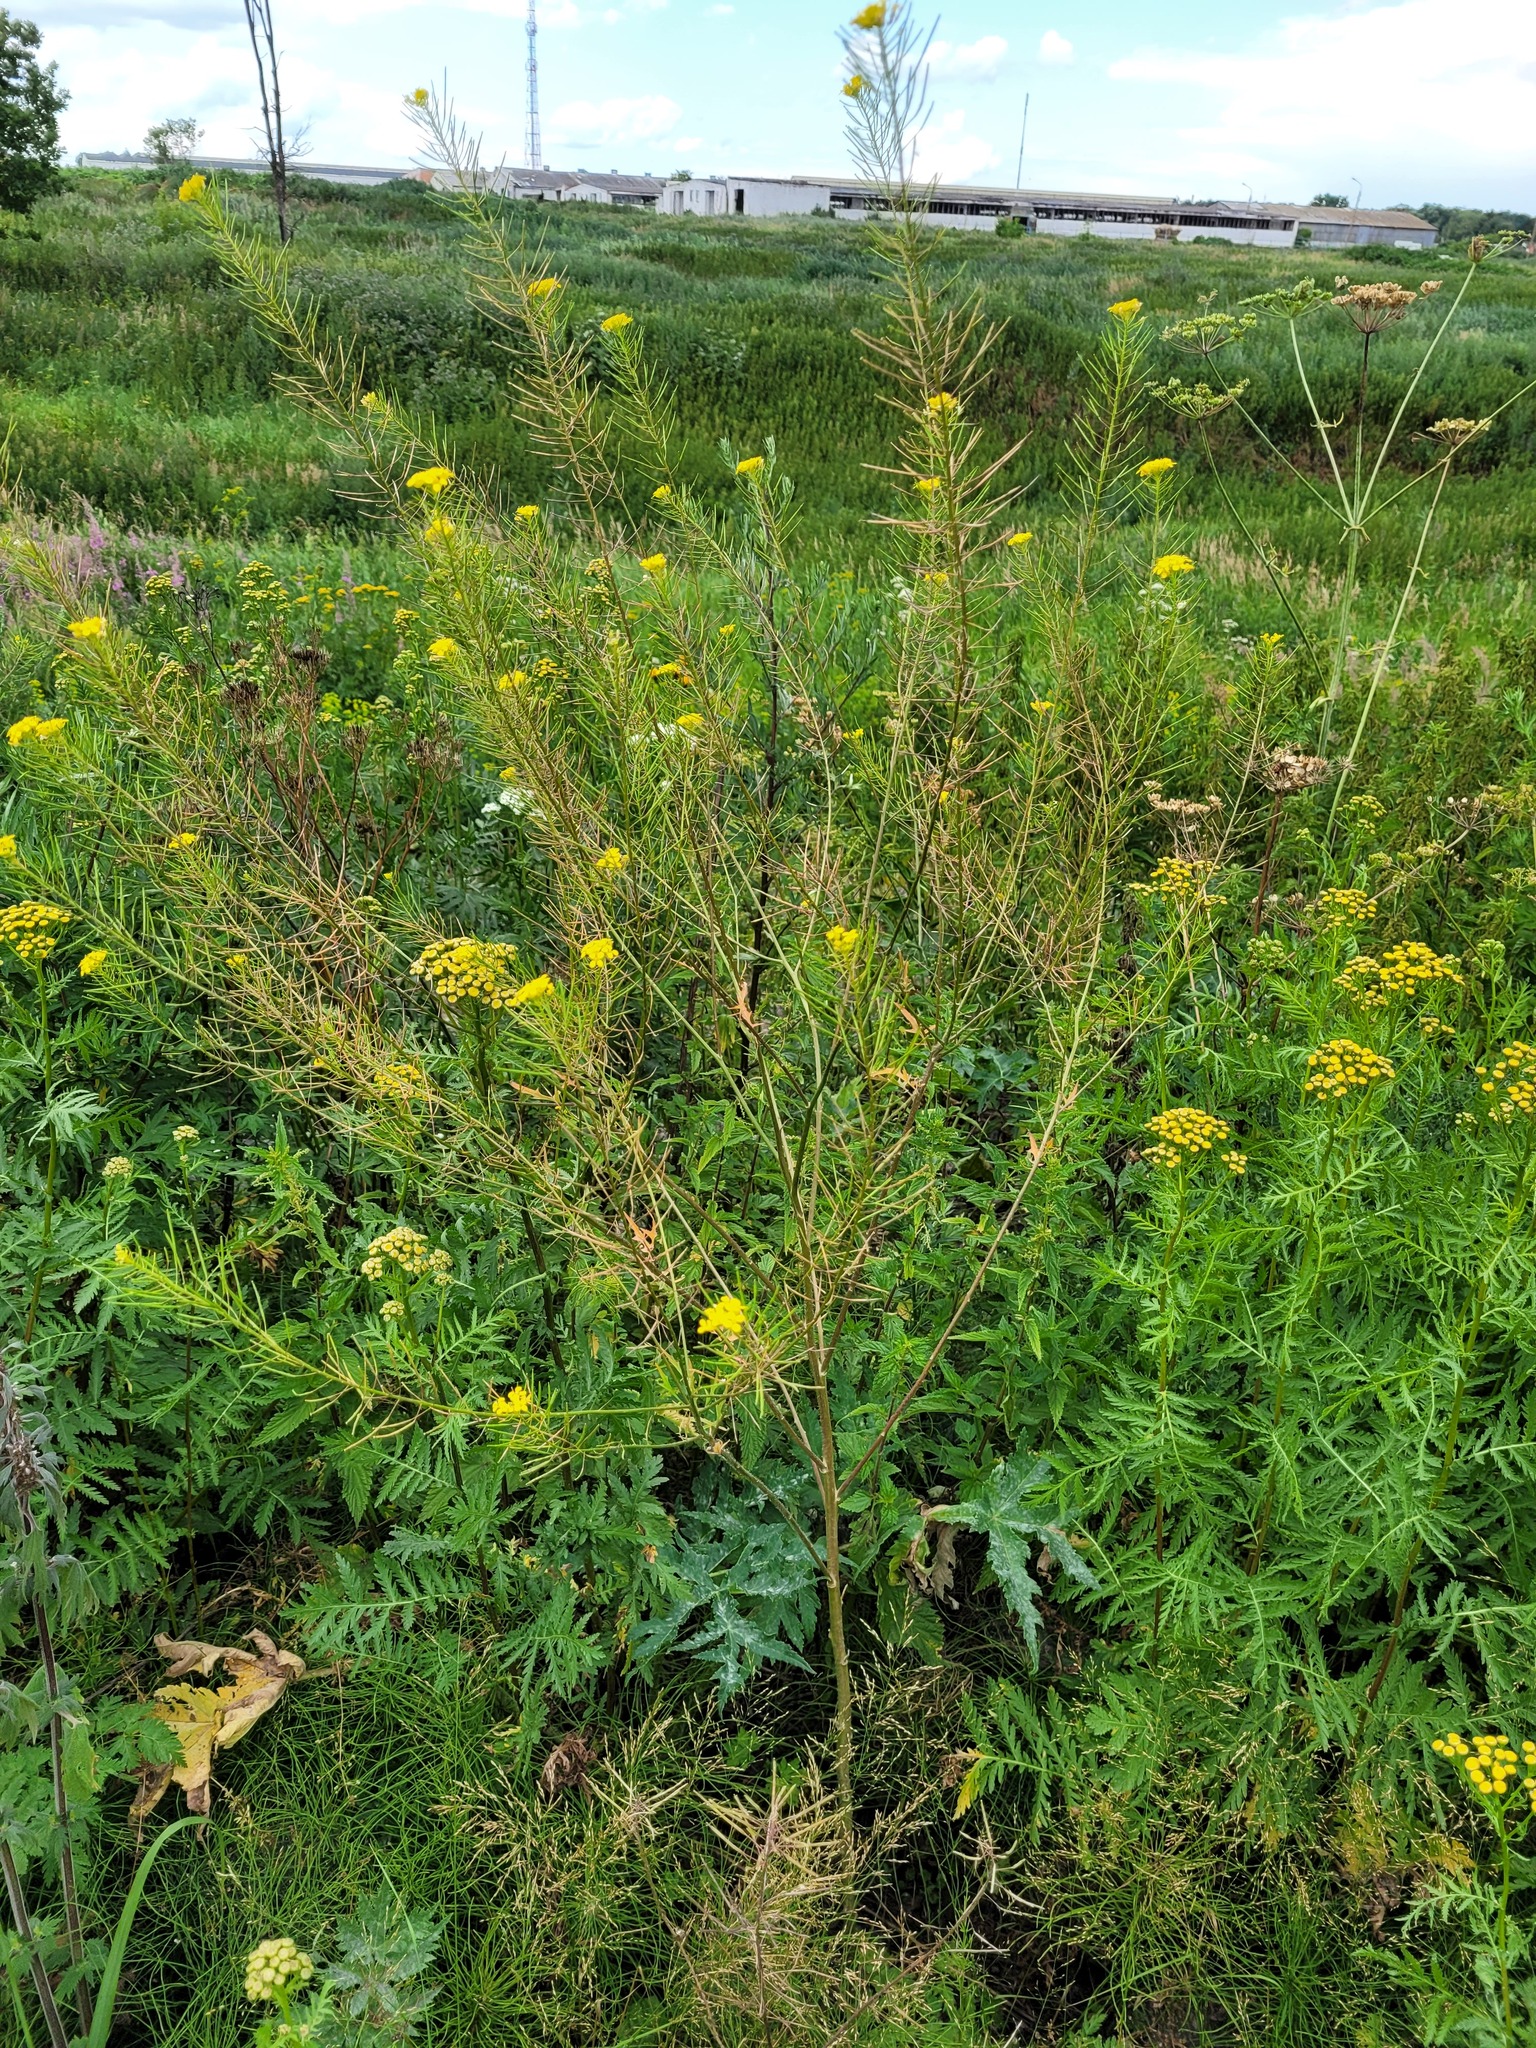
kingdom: Plantae
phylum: Tracheophyta
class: Magnoliopsida
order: Brassicales
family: Brassicaceae
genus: Sisymbrium
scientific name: Sisymbrium loeselii
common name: False london-rocket
